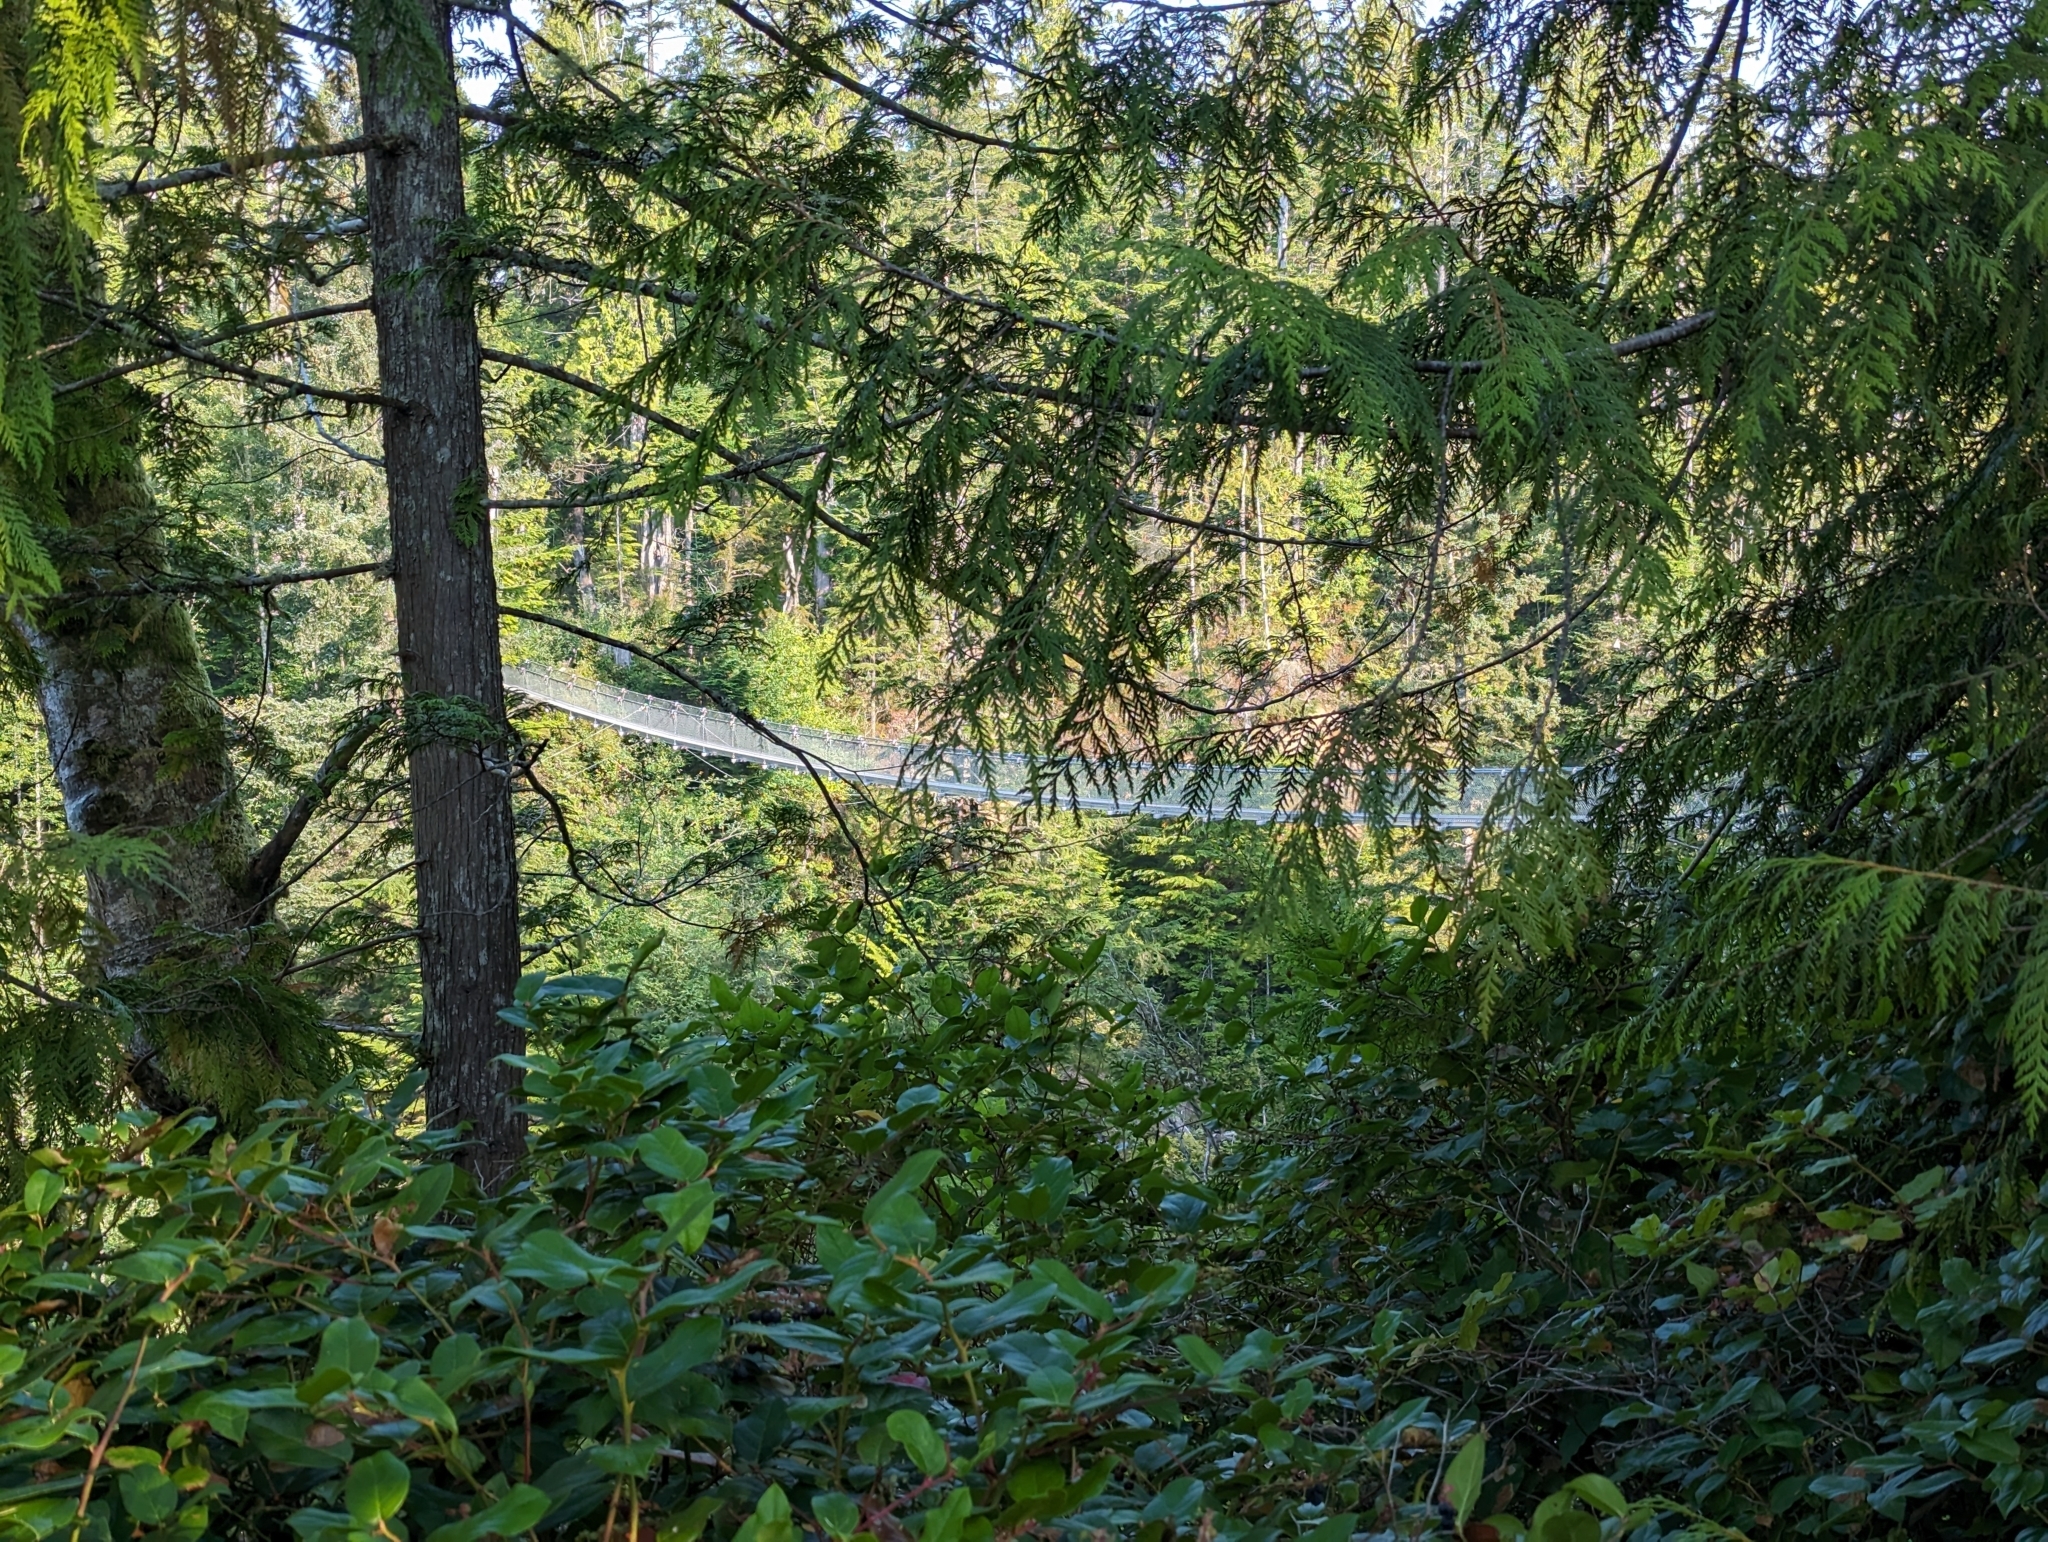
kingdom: Plantae
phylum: Tracheophyta
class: Pinopsida
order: Pinales
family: Pinaceae
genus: Tsuga
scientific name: Tsuga heterophylla
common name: Western hemlock
